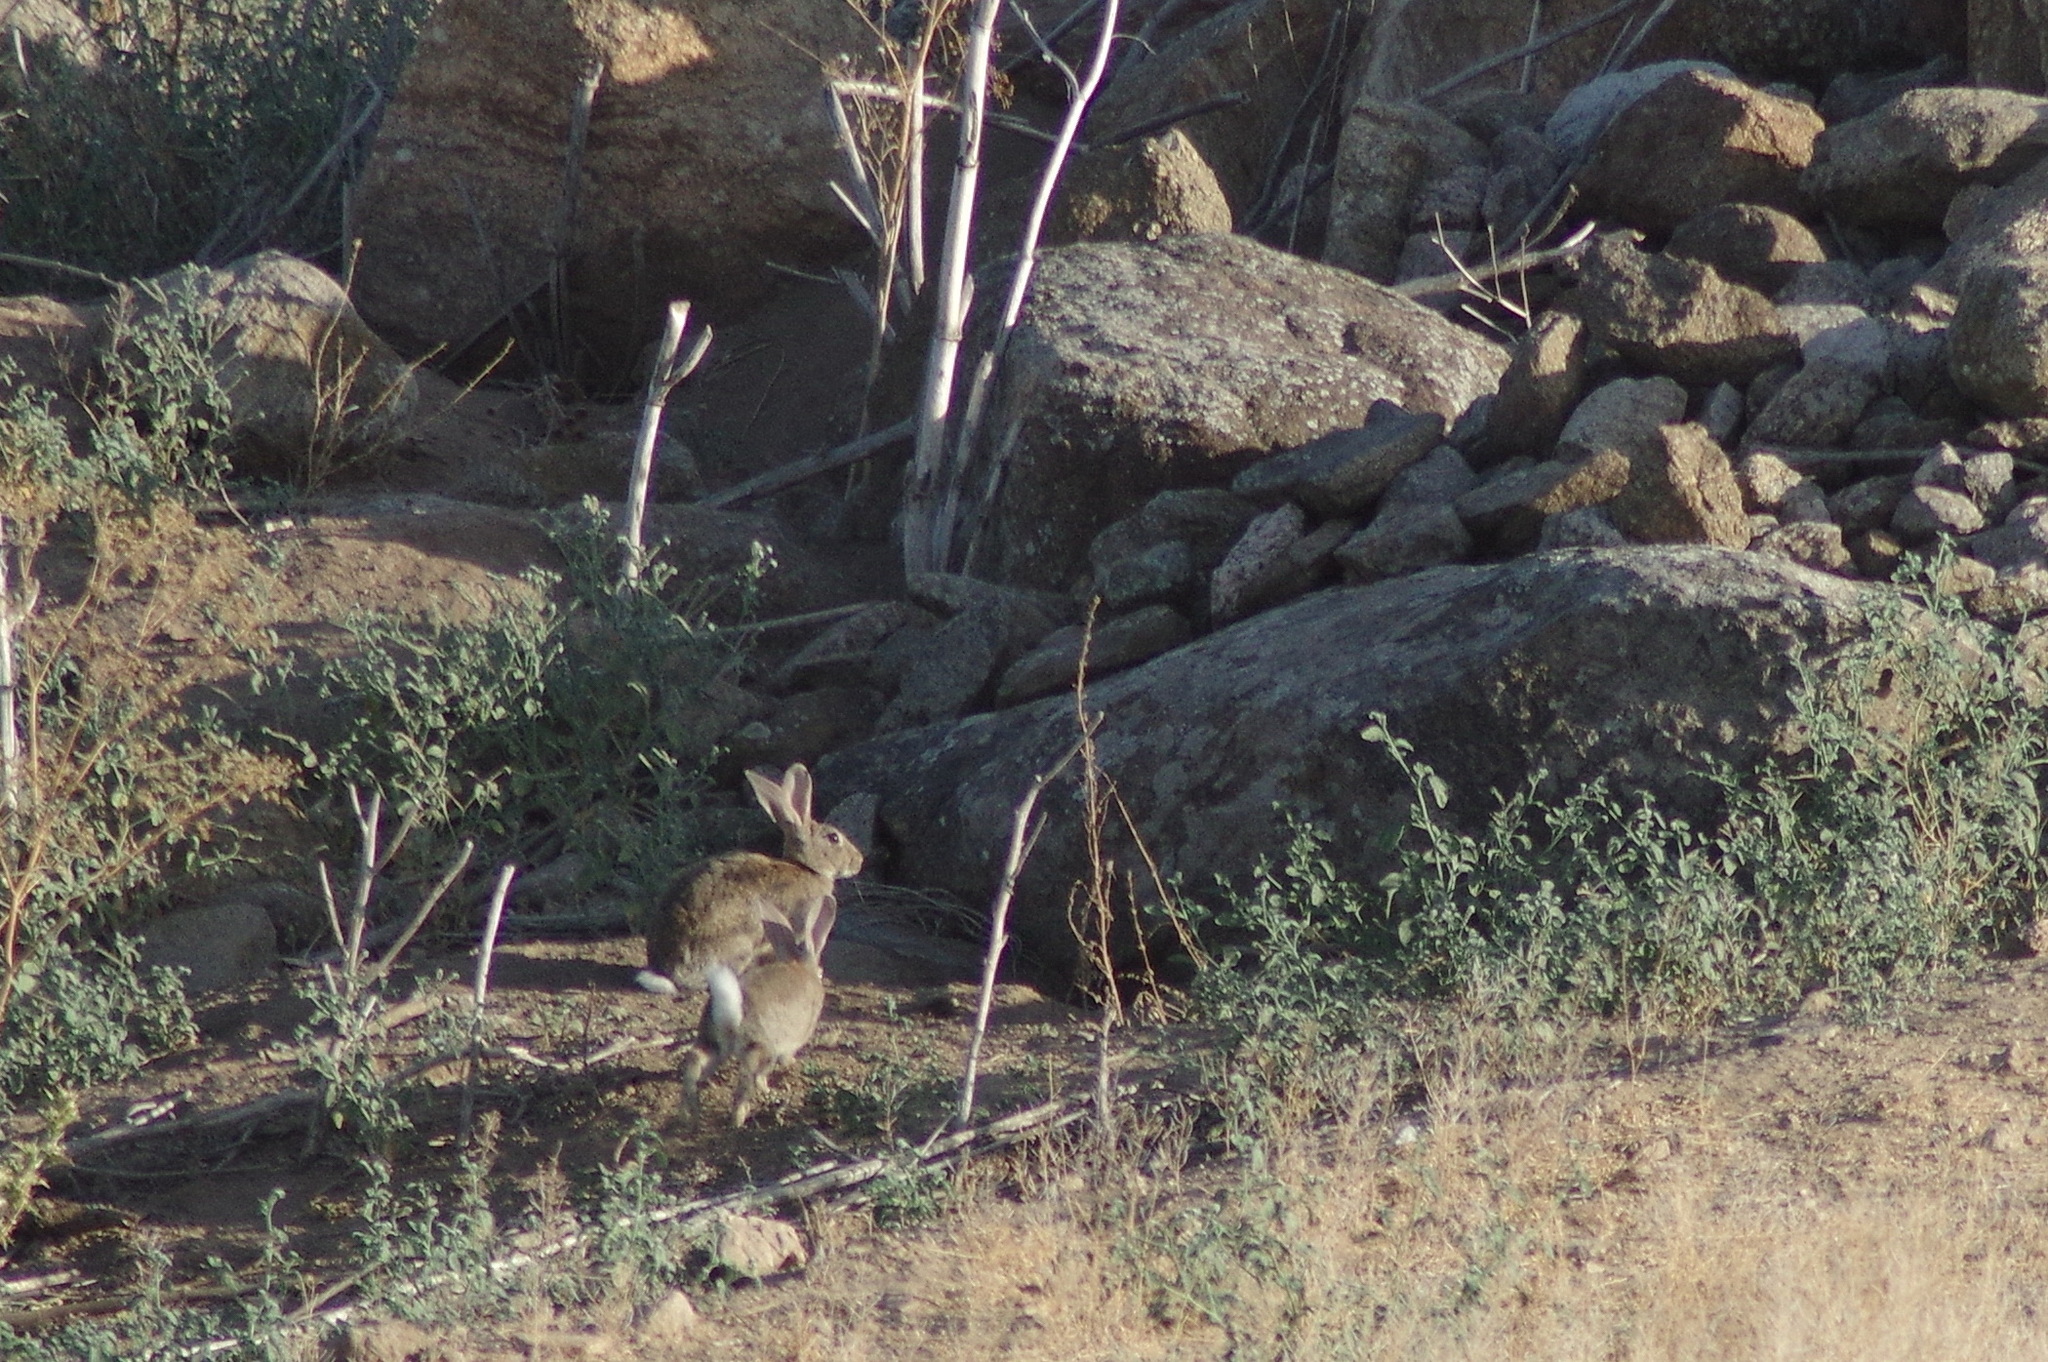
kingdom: Animalia
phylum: Chordata
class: Mammalia
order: Lagomorpha
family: Leporidae
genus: Oryctolagus
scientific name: Oryctolagus cuniculus
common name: European rabbit
